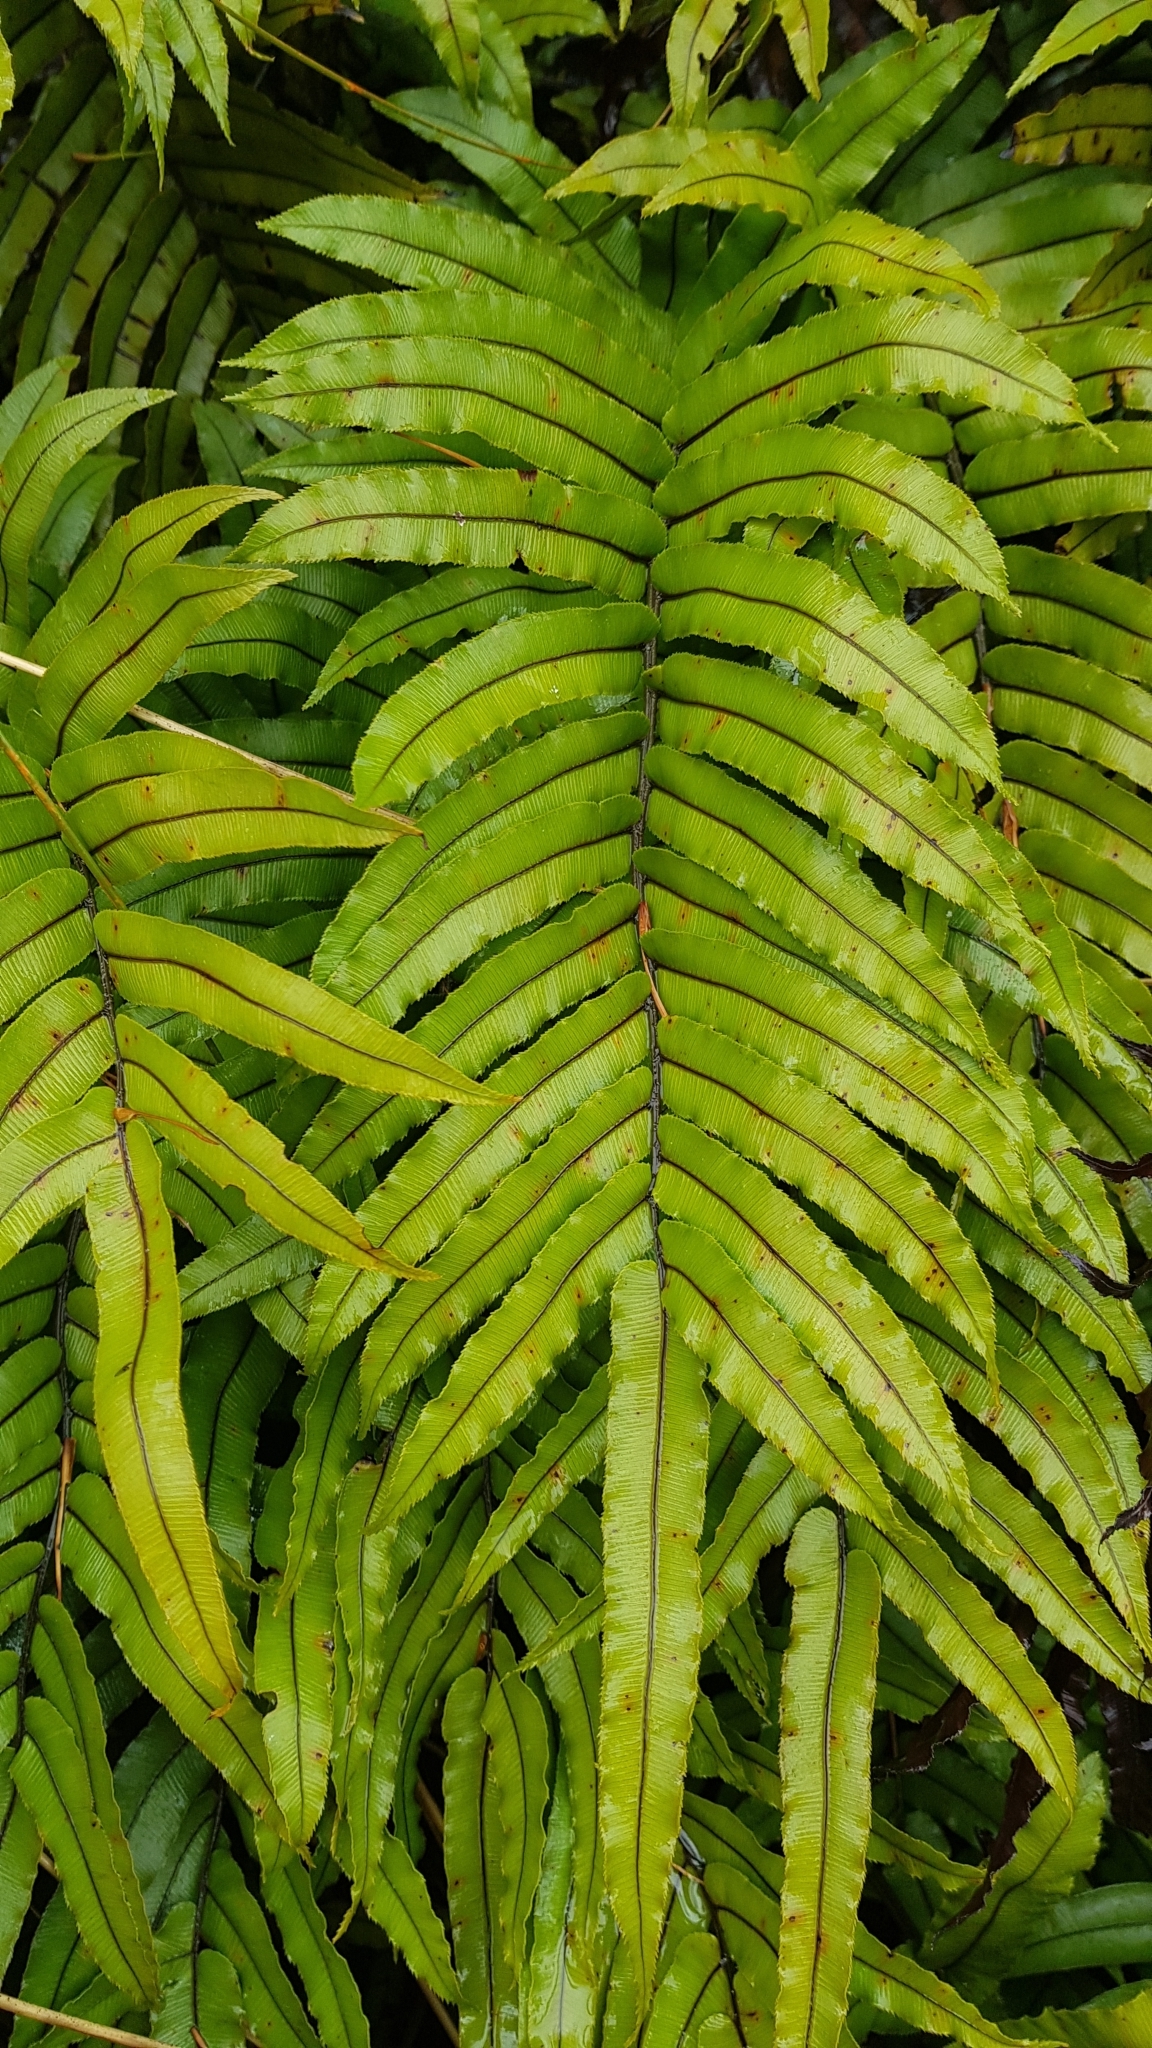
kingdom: Plantae
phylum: Tracheophyta
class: Polypodiopsida
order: Polypodiales
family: Blechnaceae
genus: Parablechnum
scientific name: Parablechnum montanum
